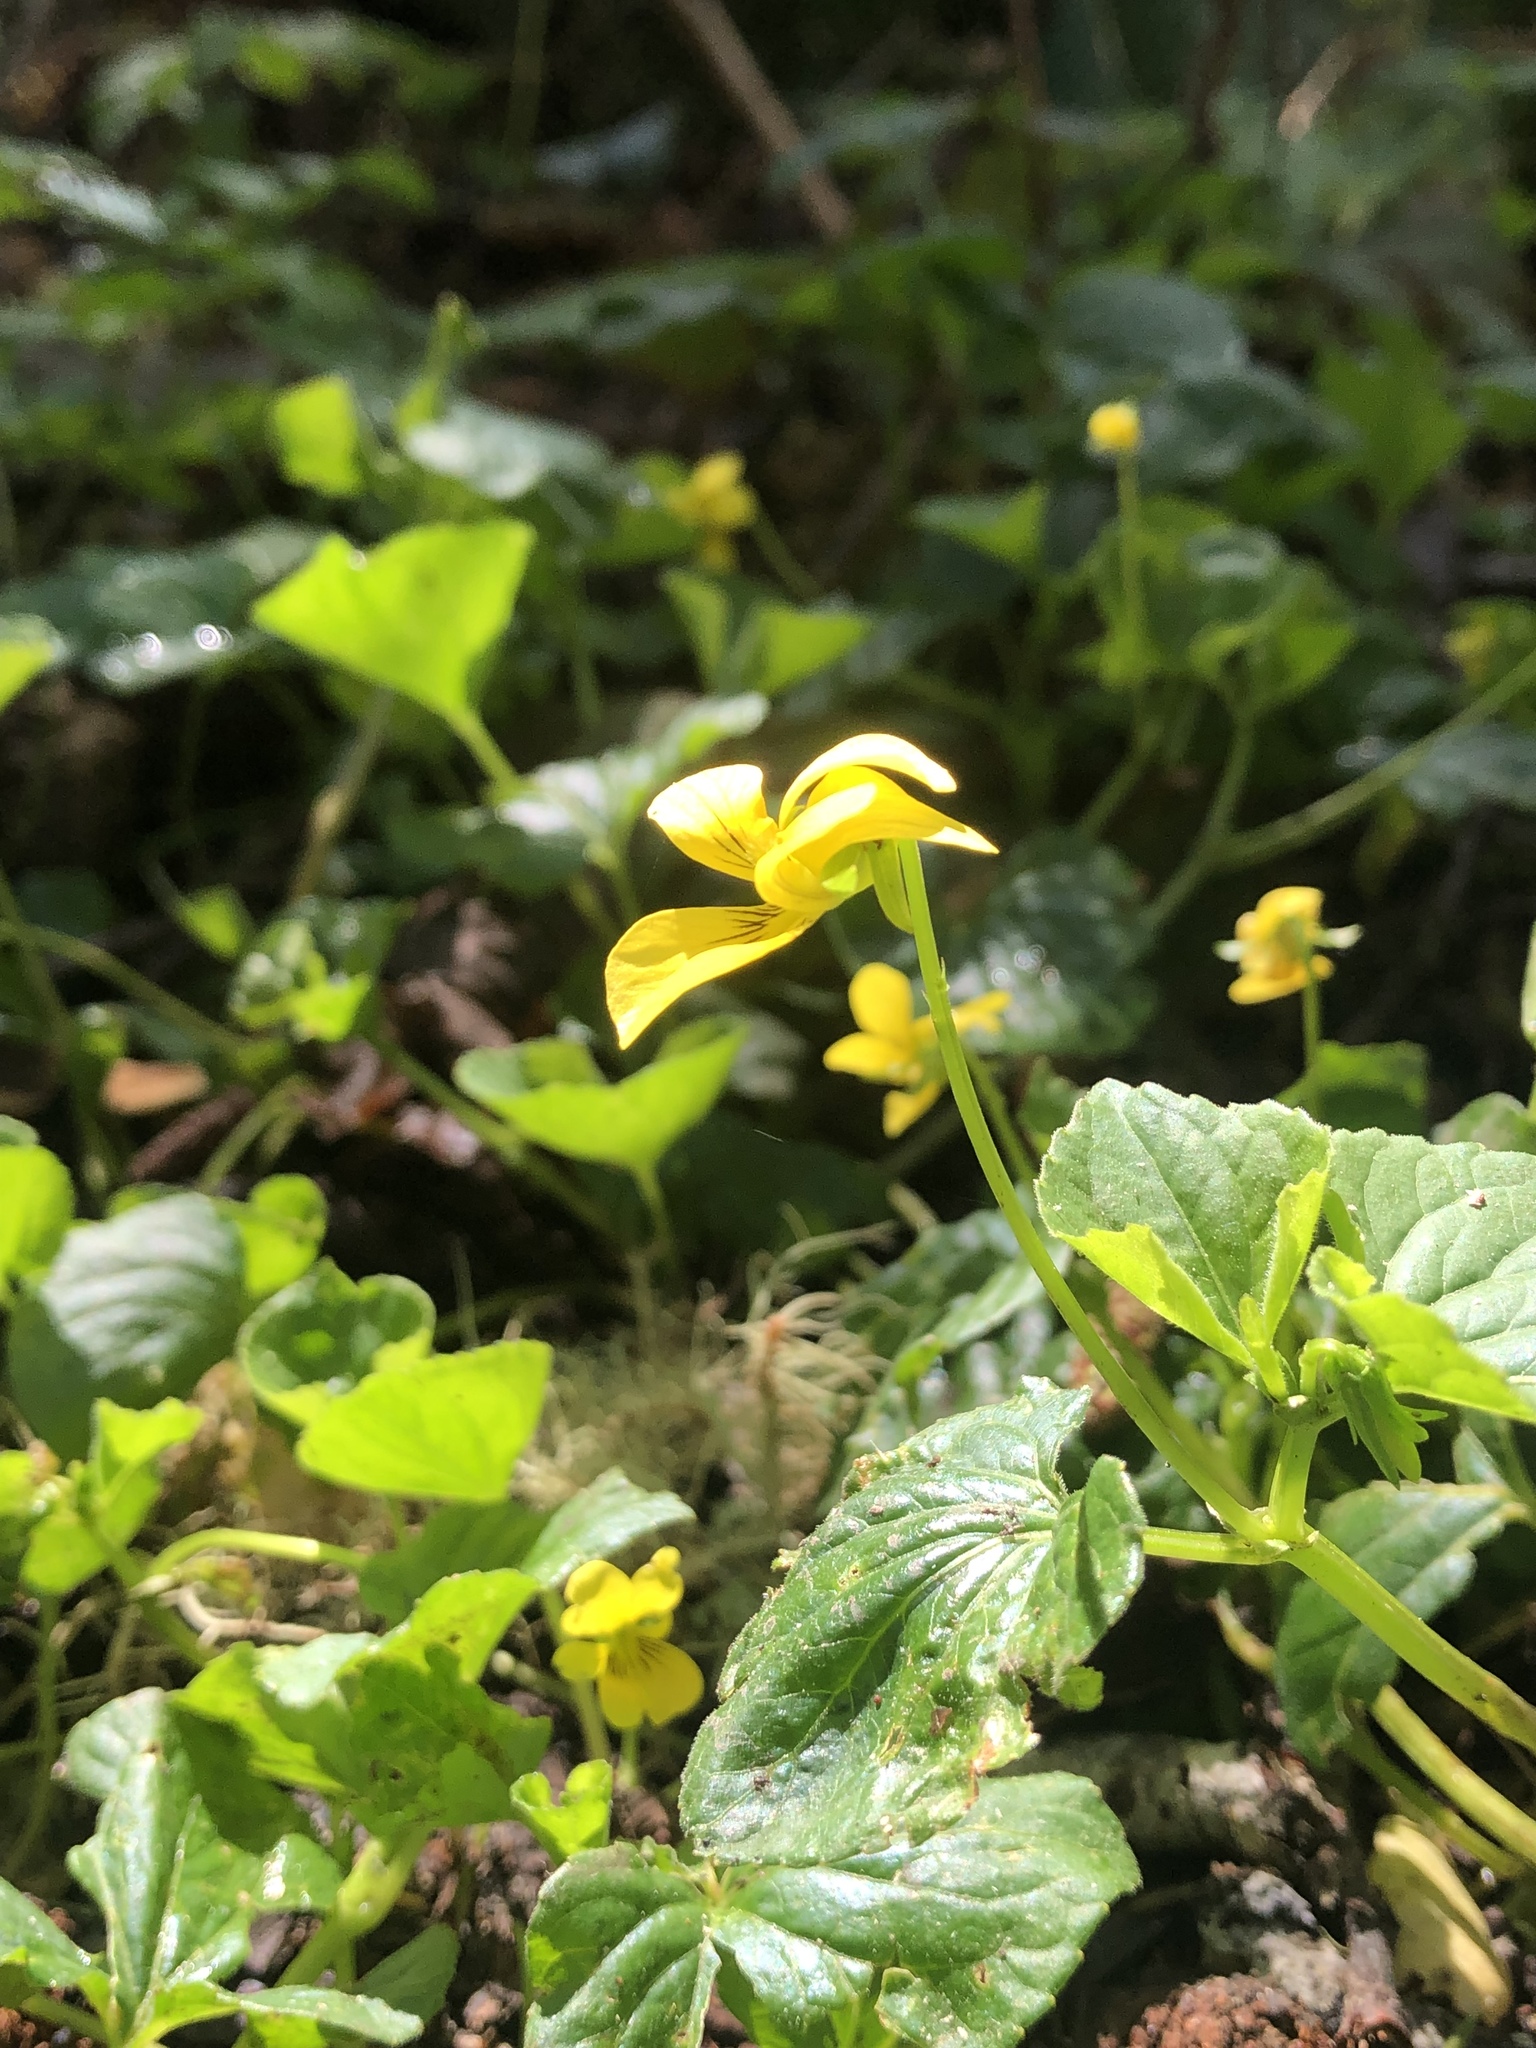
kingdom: Plantae
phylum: Tracheophyta
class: Magnoliopsida
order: Malpighiales
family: Violaceae
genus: Viola
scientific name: Viola glabella
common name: Stream violet
